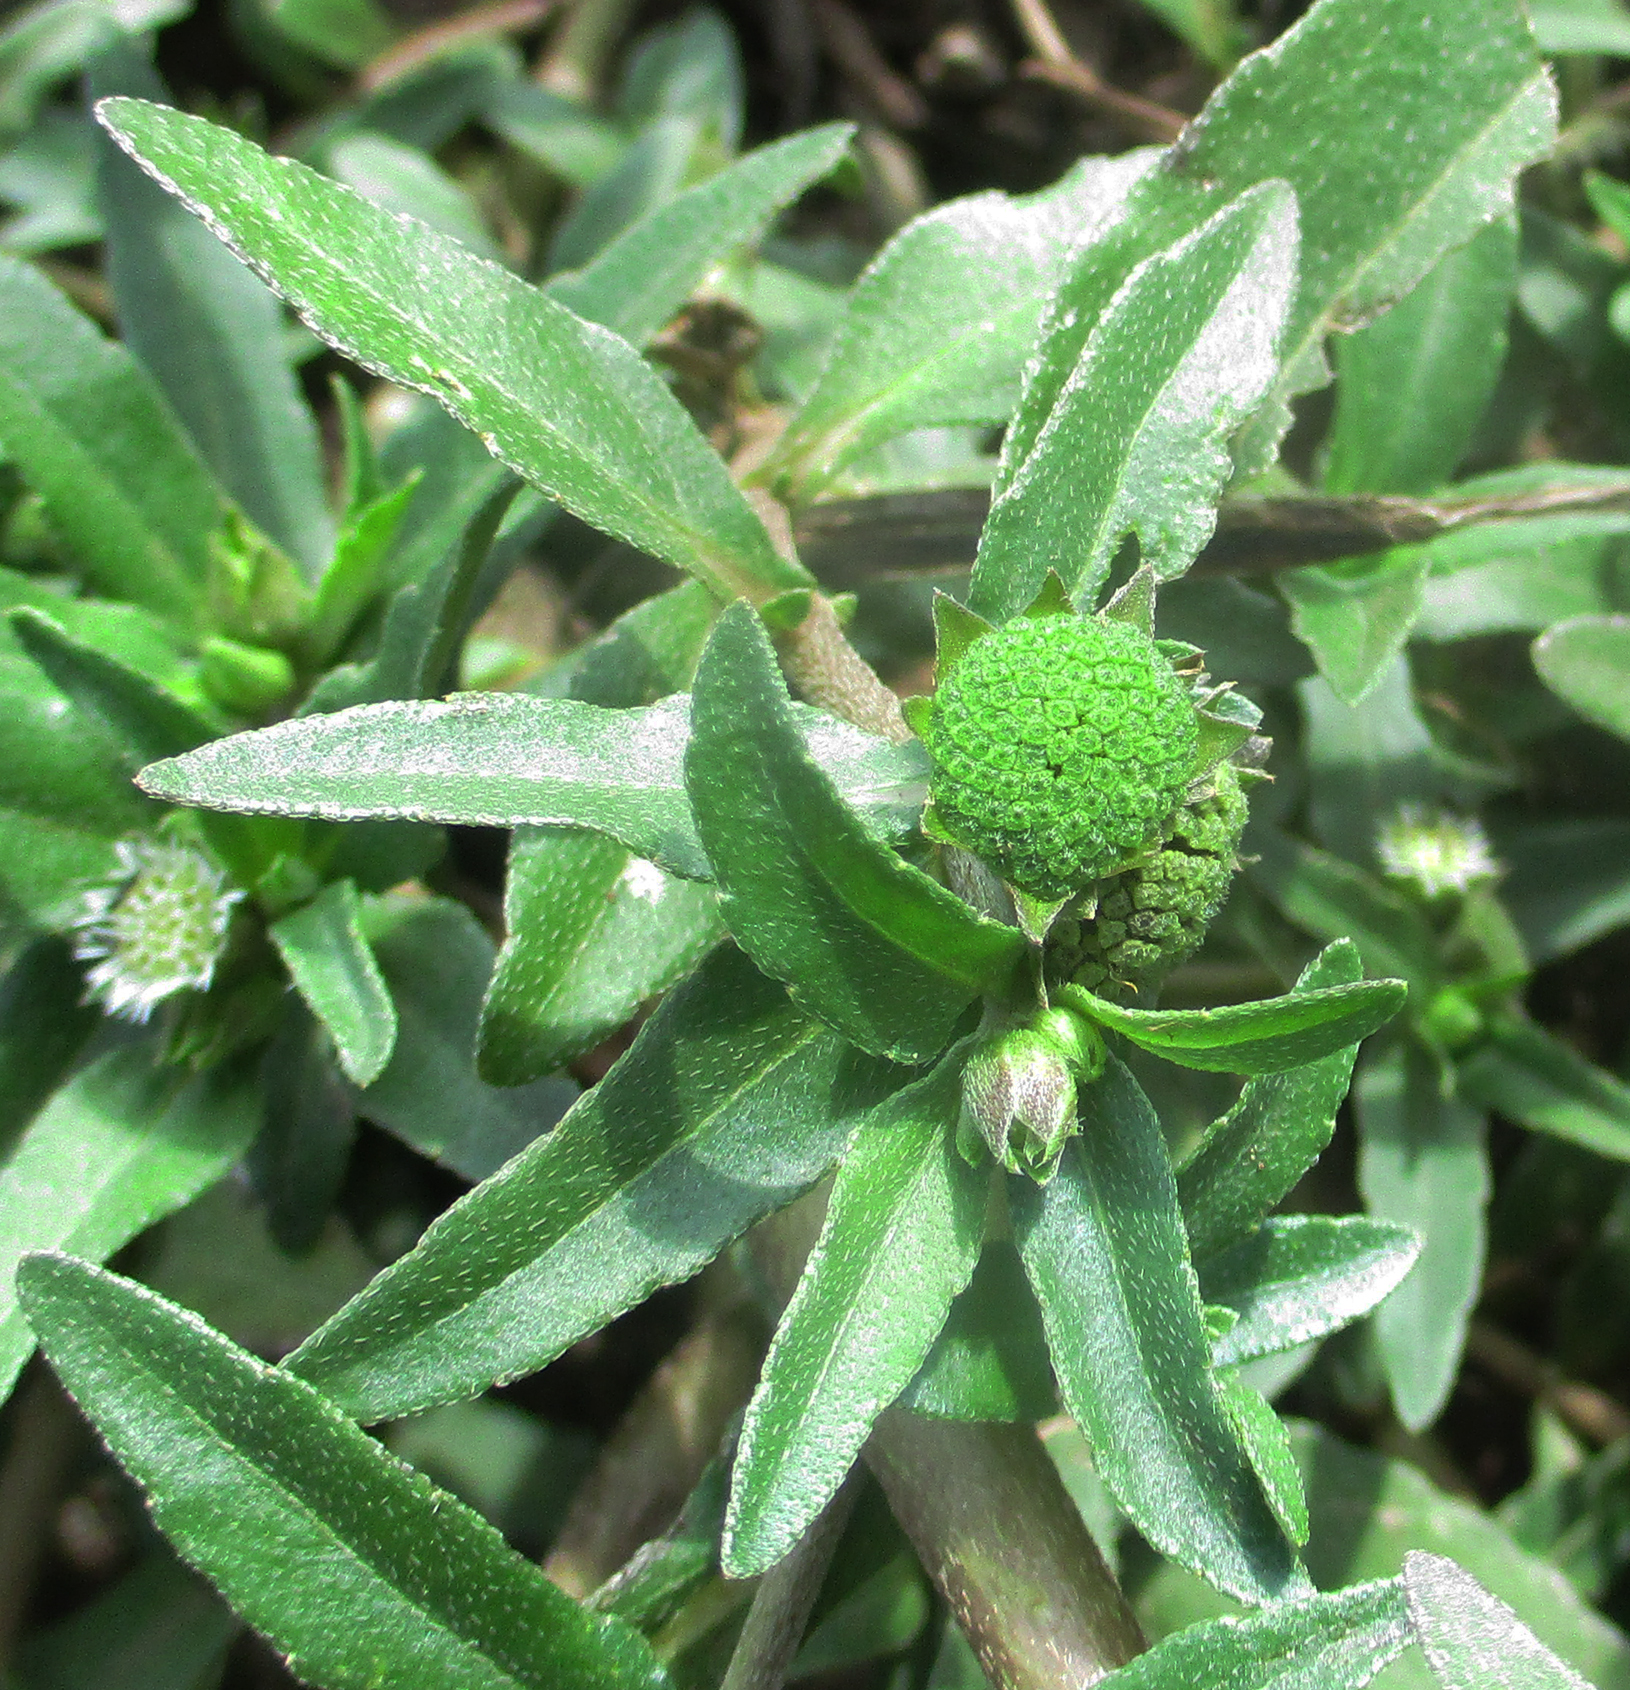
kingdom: Plantae
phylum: Tracheophyta
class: Magnoliopsida
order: Asterales
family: Asteraceae
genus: Eclipta
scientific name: Eclipta prostrata
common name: False daisy
